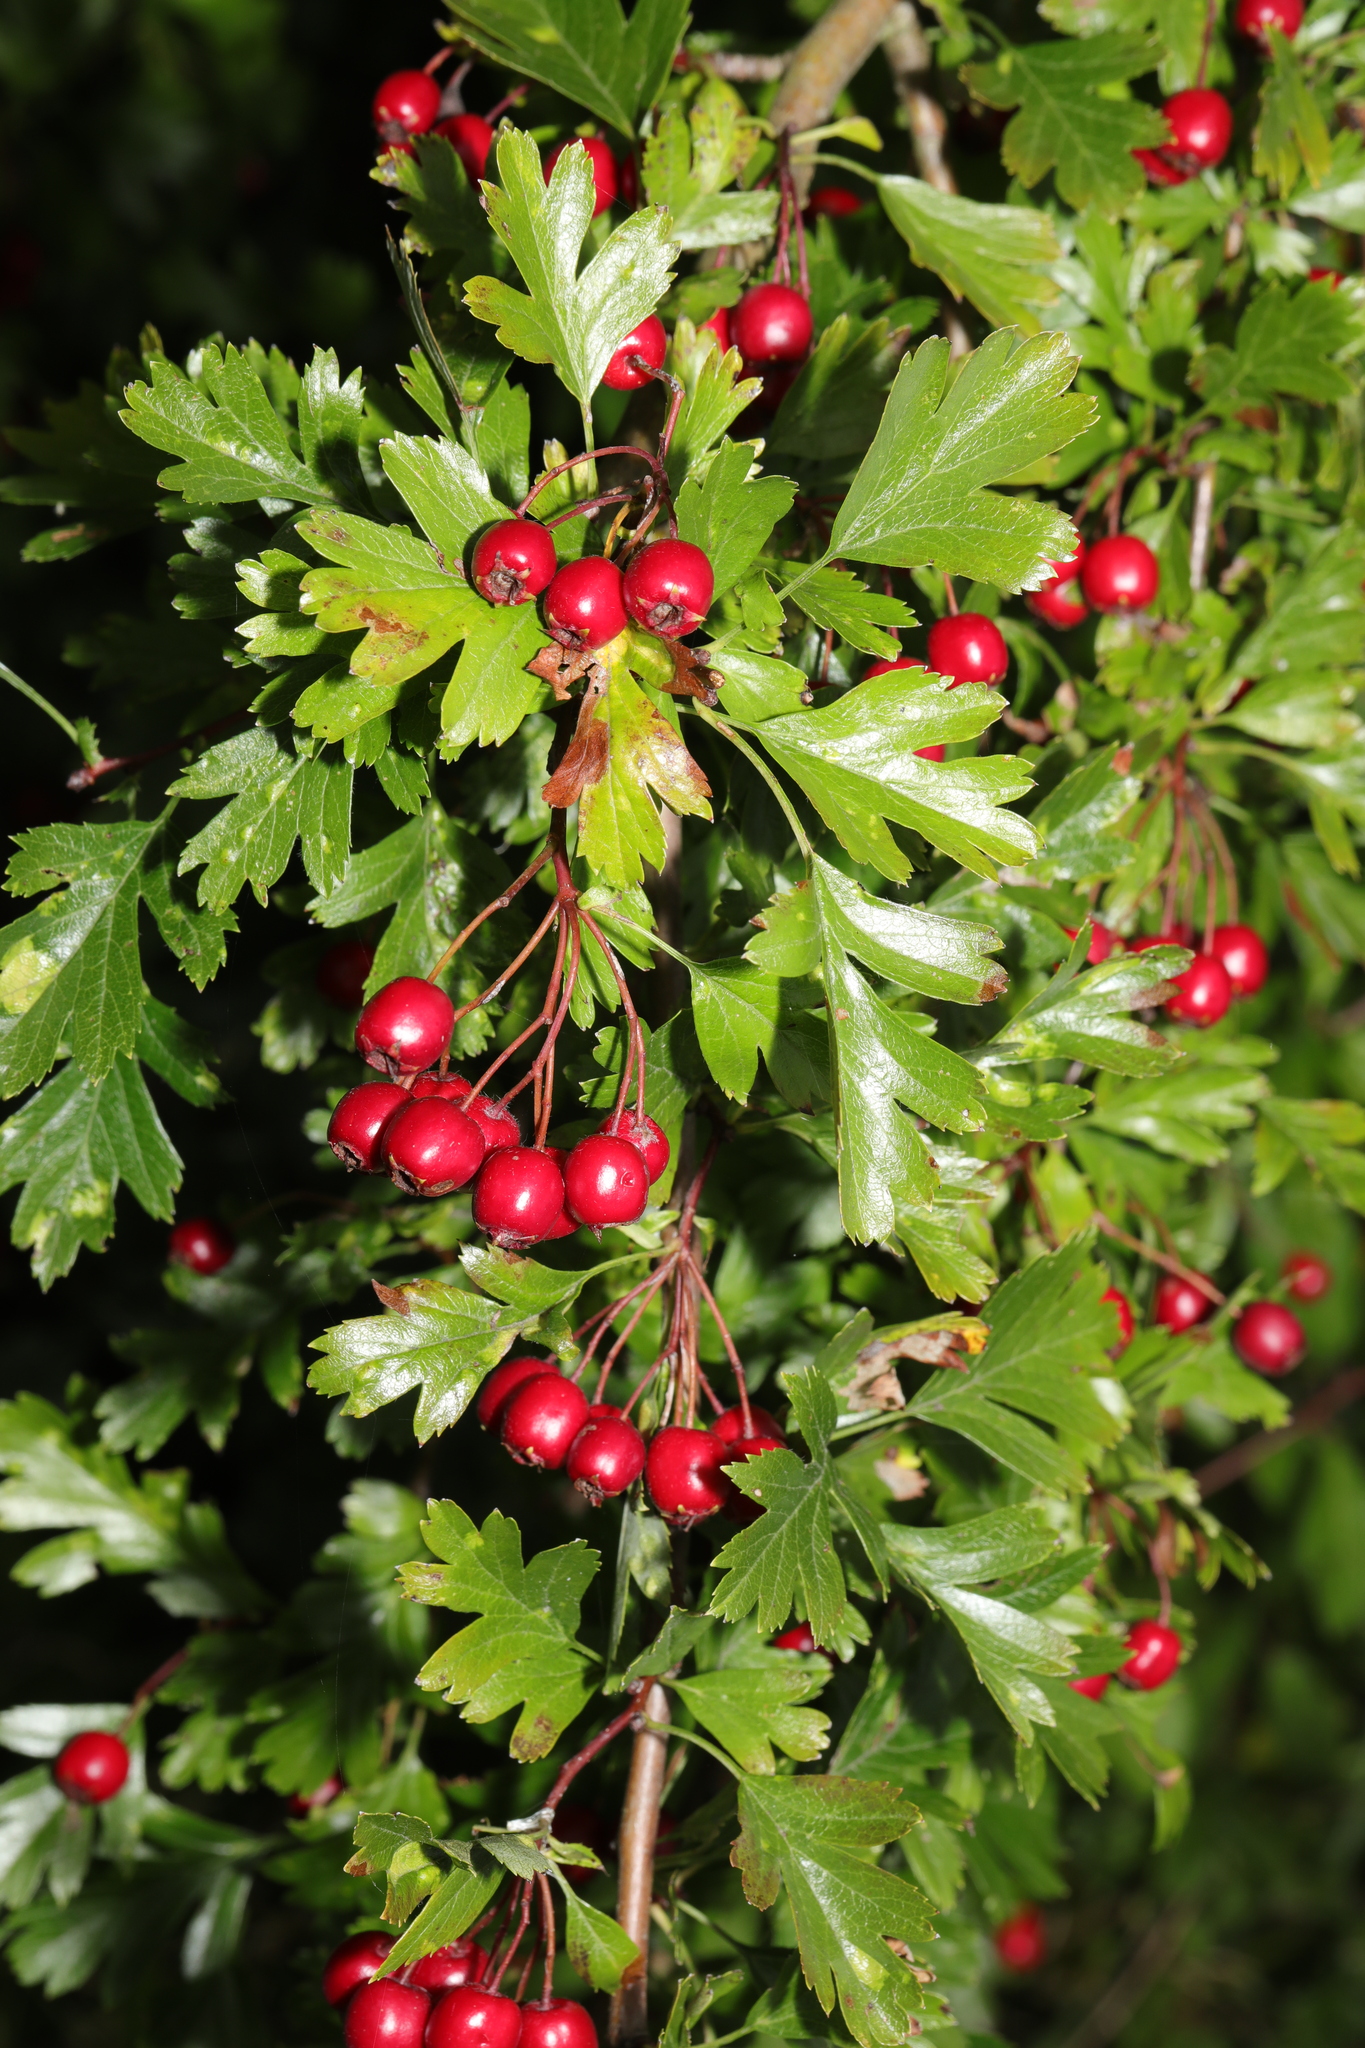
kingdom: Plantae
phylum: Tracheophyta
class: Magnoliopsida
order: Rosales
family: Rosaceae
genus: Crataegus
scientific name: Crataegus monogyna
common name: Hawthorn
